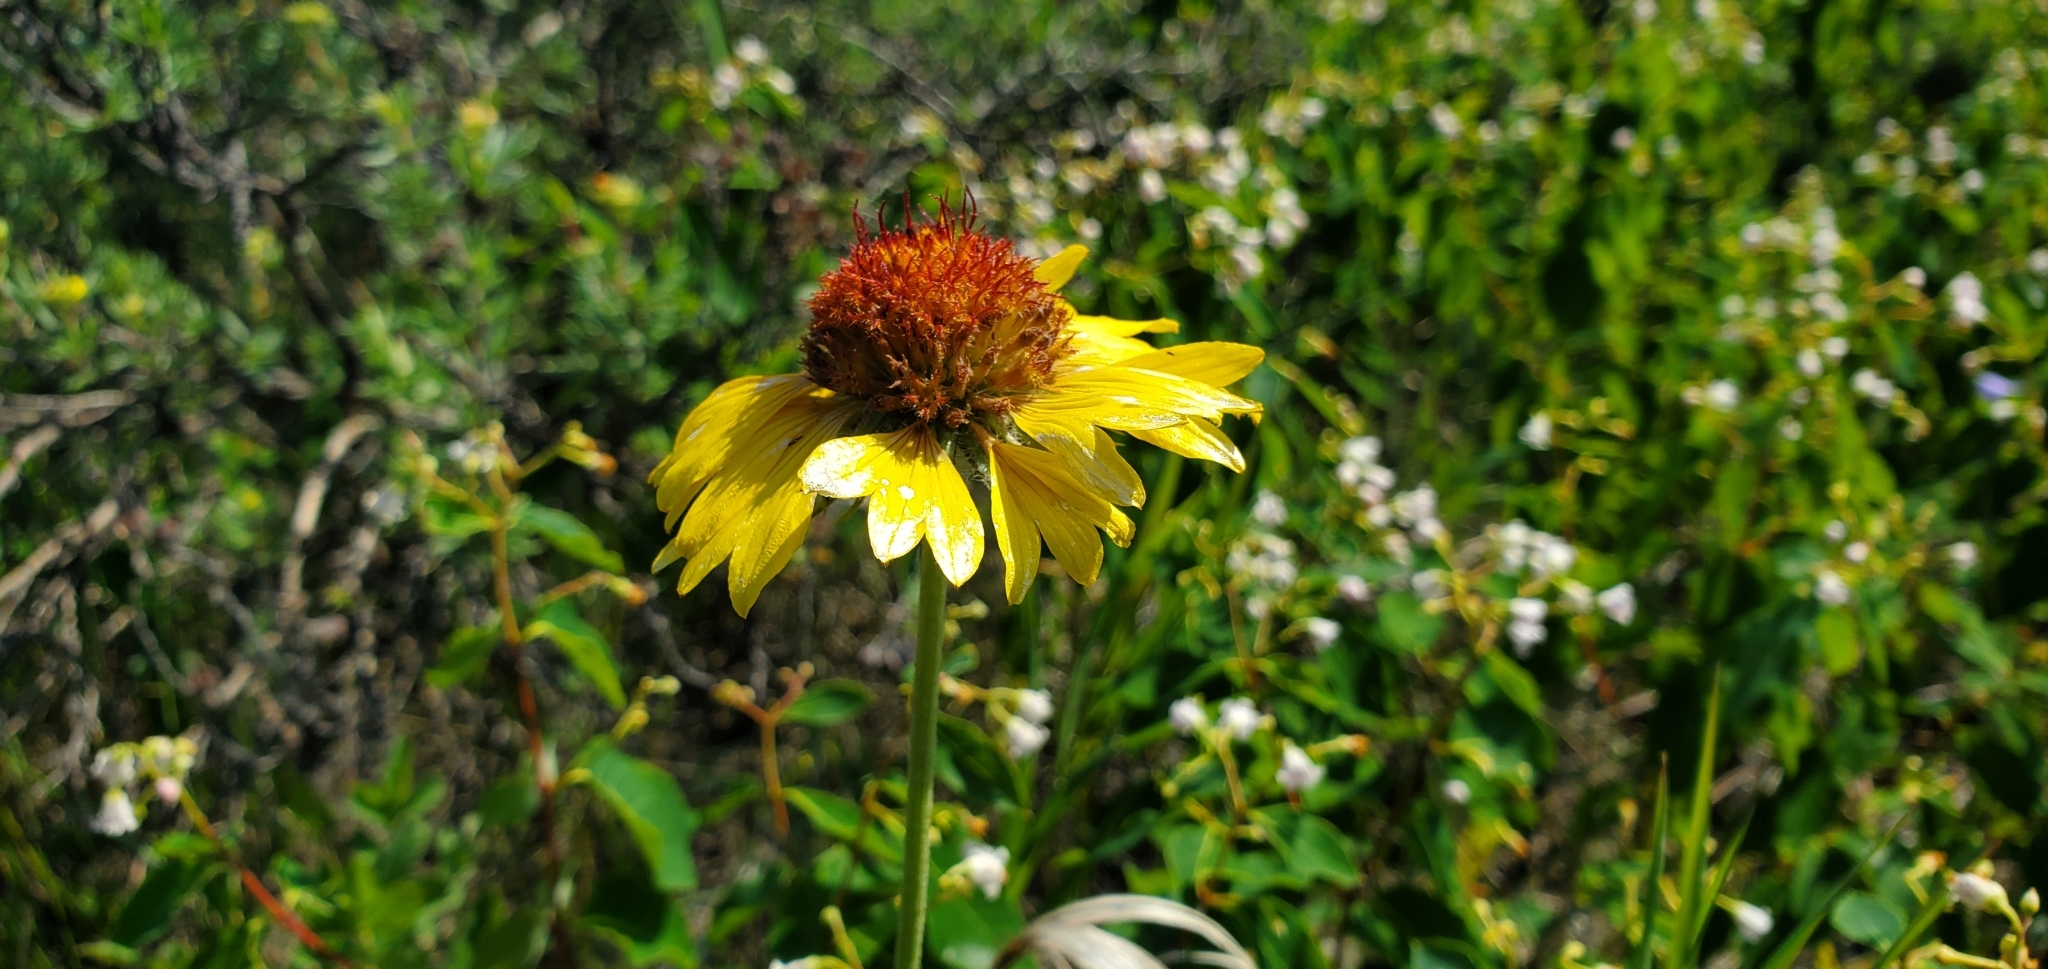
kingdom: Plantae
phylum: Tracheophyta
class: Magnoliopsida
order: Asterales
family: Asteraceae
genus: Gaillardia
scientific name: Gaillardia aristata
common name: Blanket-flower
